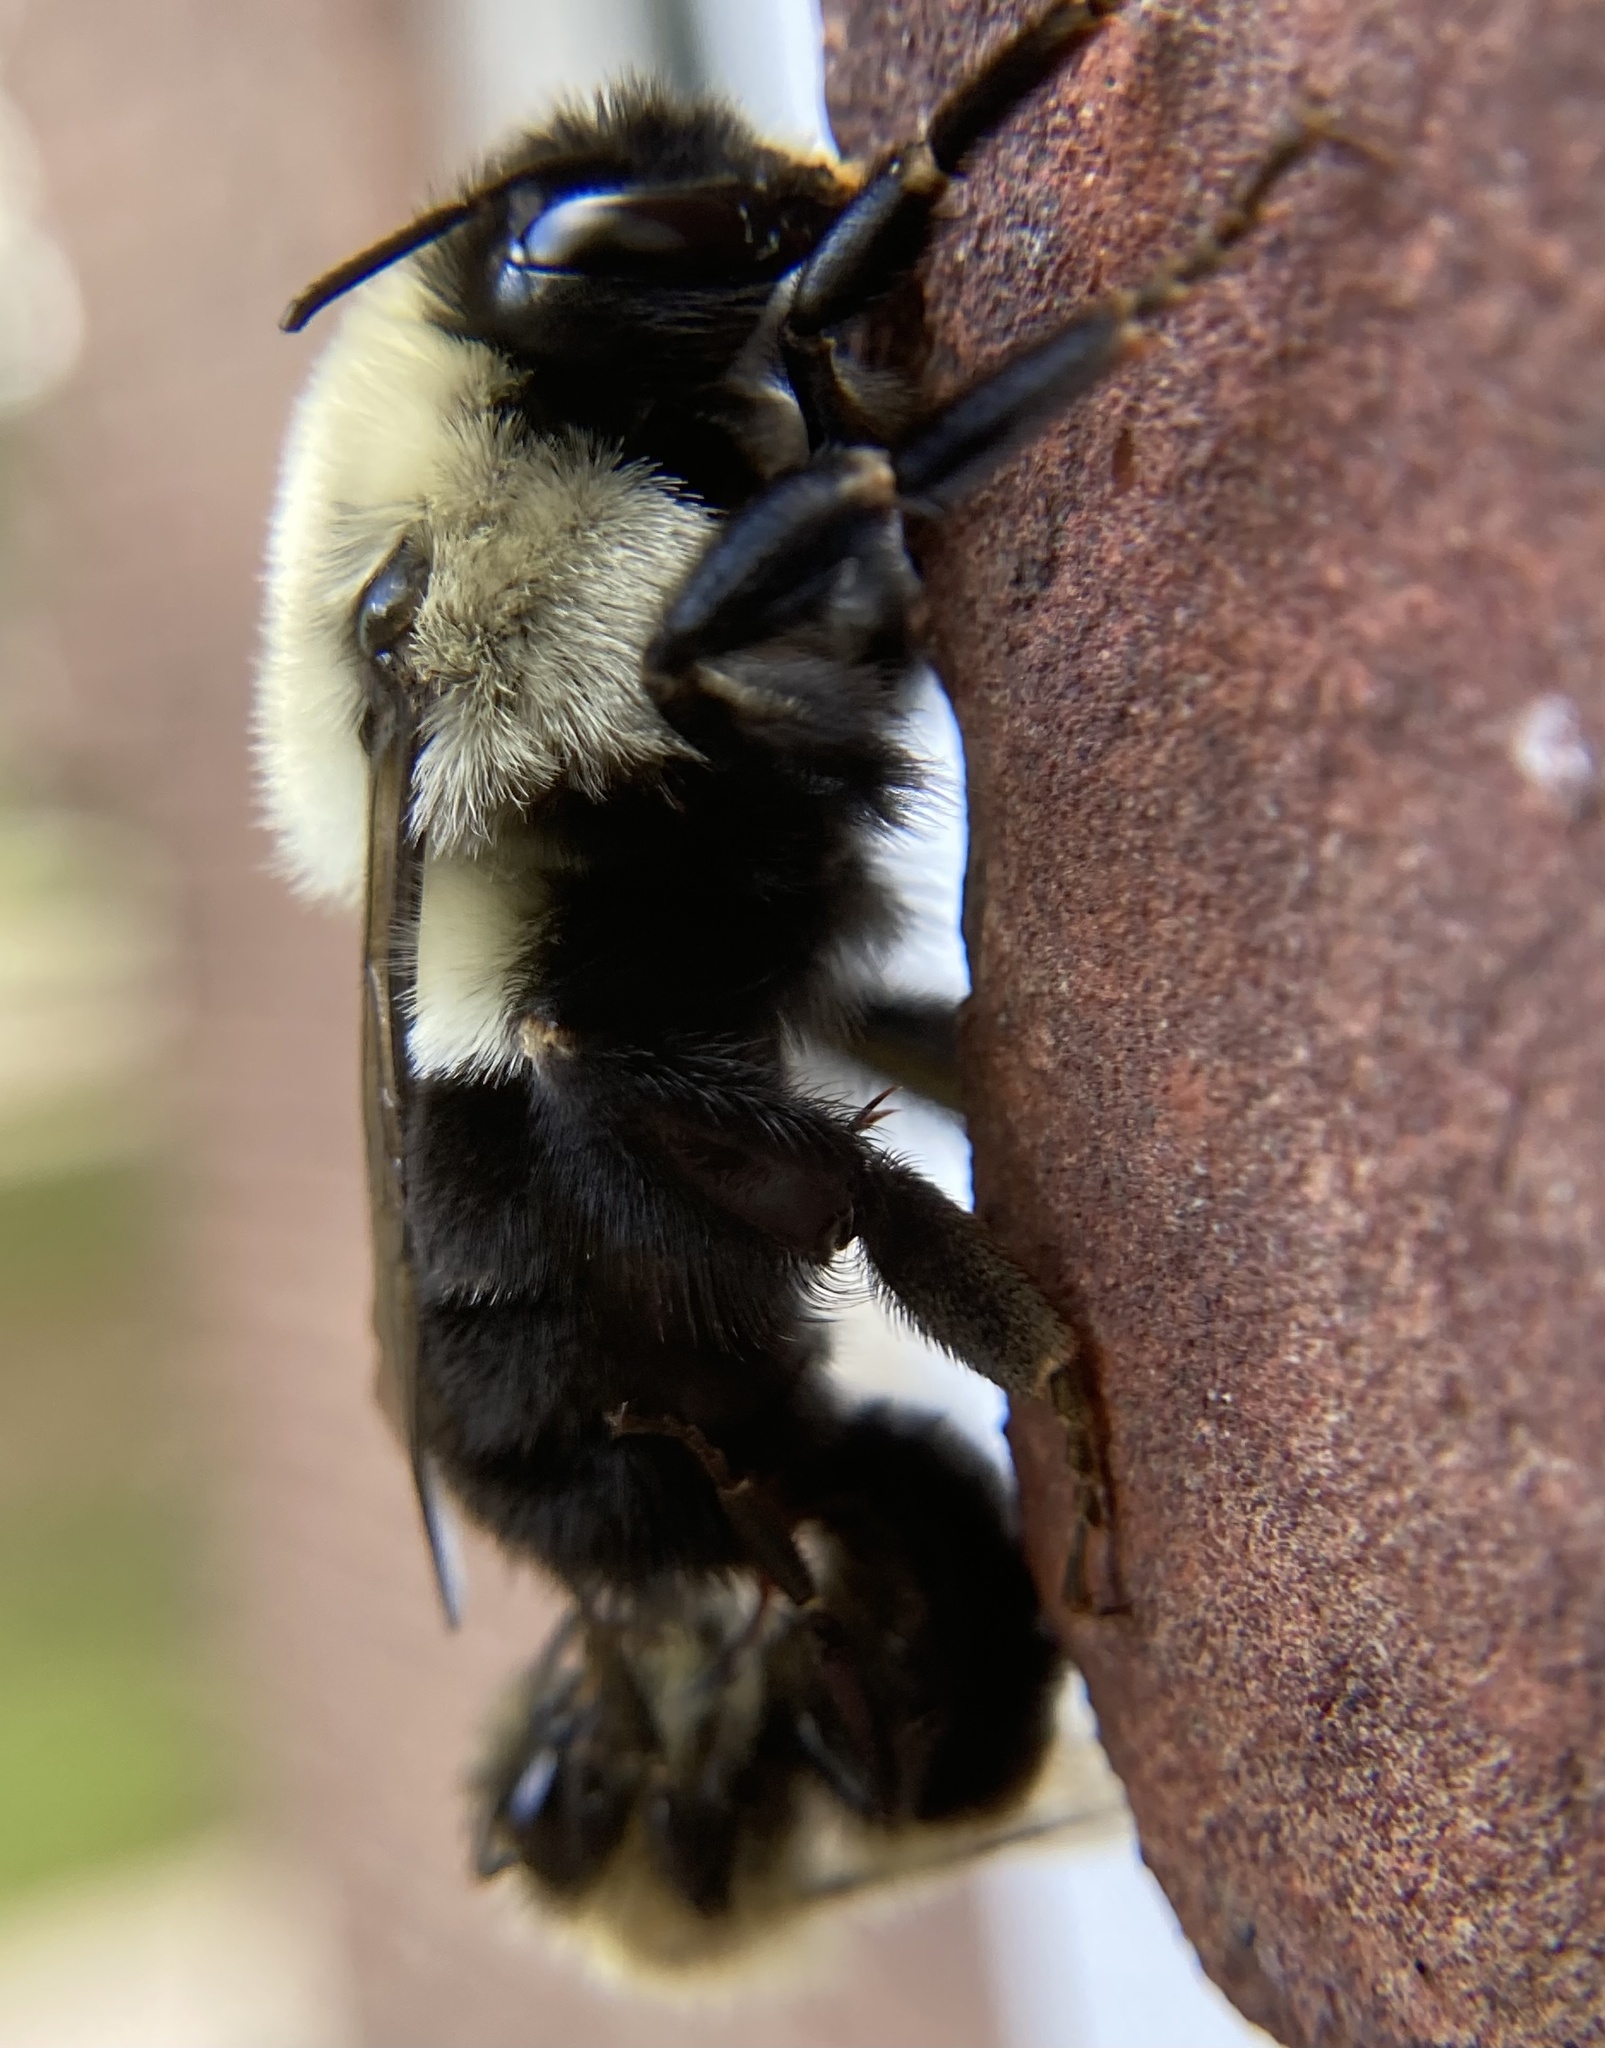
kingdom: Animalia
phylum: Arthropoda
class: Insecta
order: Hymenoptera
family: Apidae
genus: Bombus
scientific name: Bombus impatiens
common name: Common eastern bumble bee
